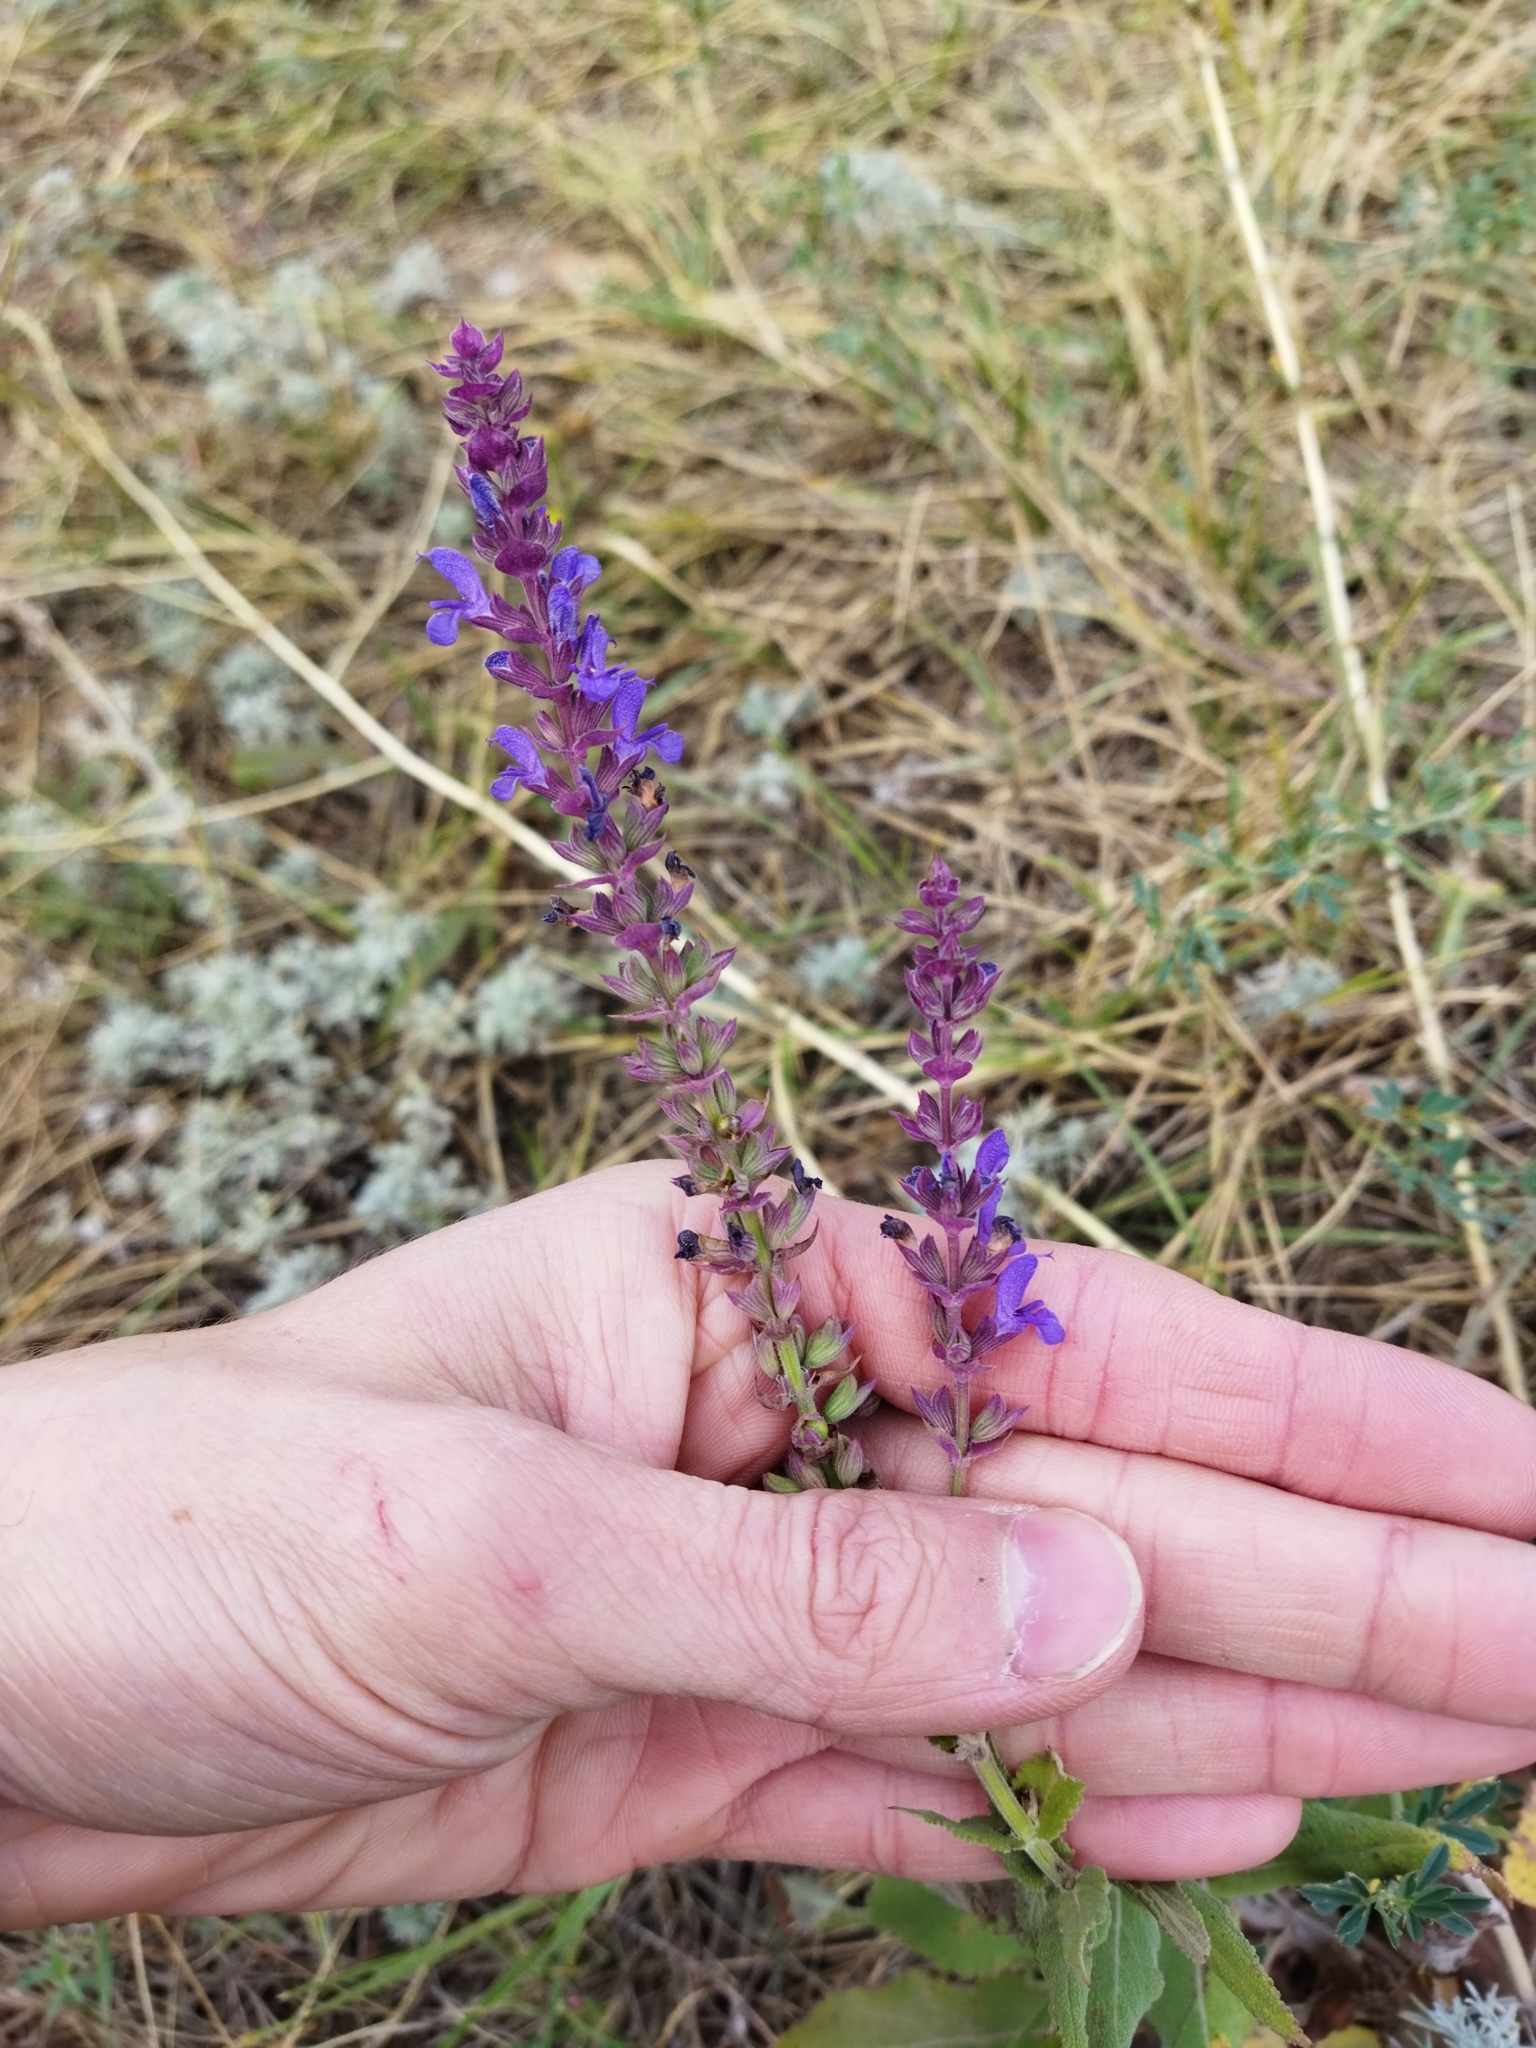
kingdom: Plantae
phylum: Tracheophyta
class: Magnoliopsida
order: Lamiales
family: Lamiaceae
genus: Salvia
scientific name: Salvia nemorosa
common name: Balkan clary
